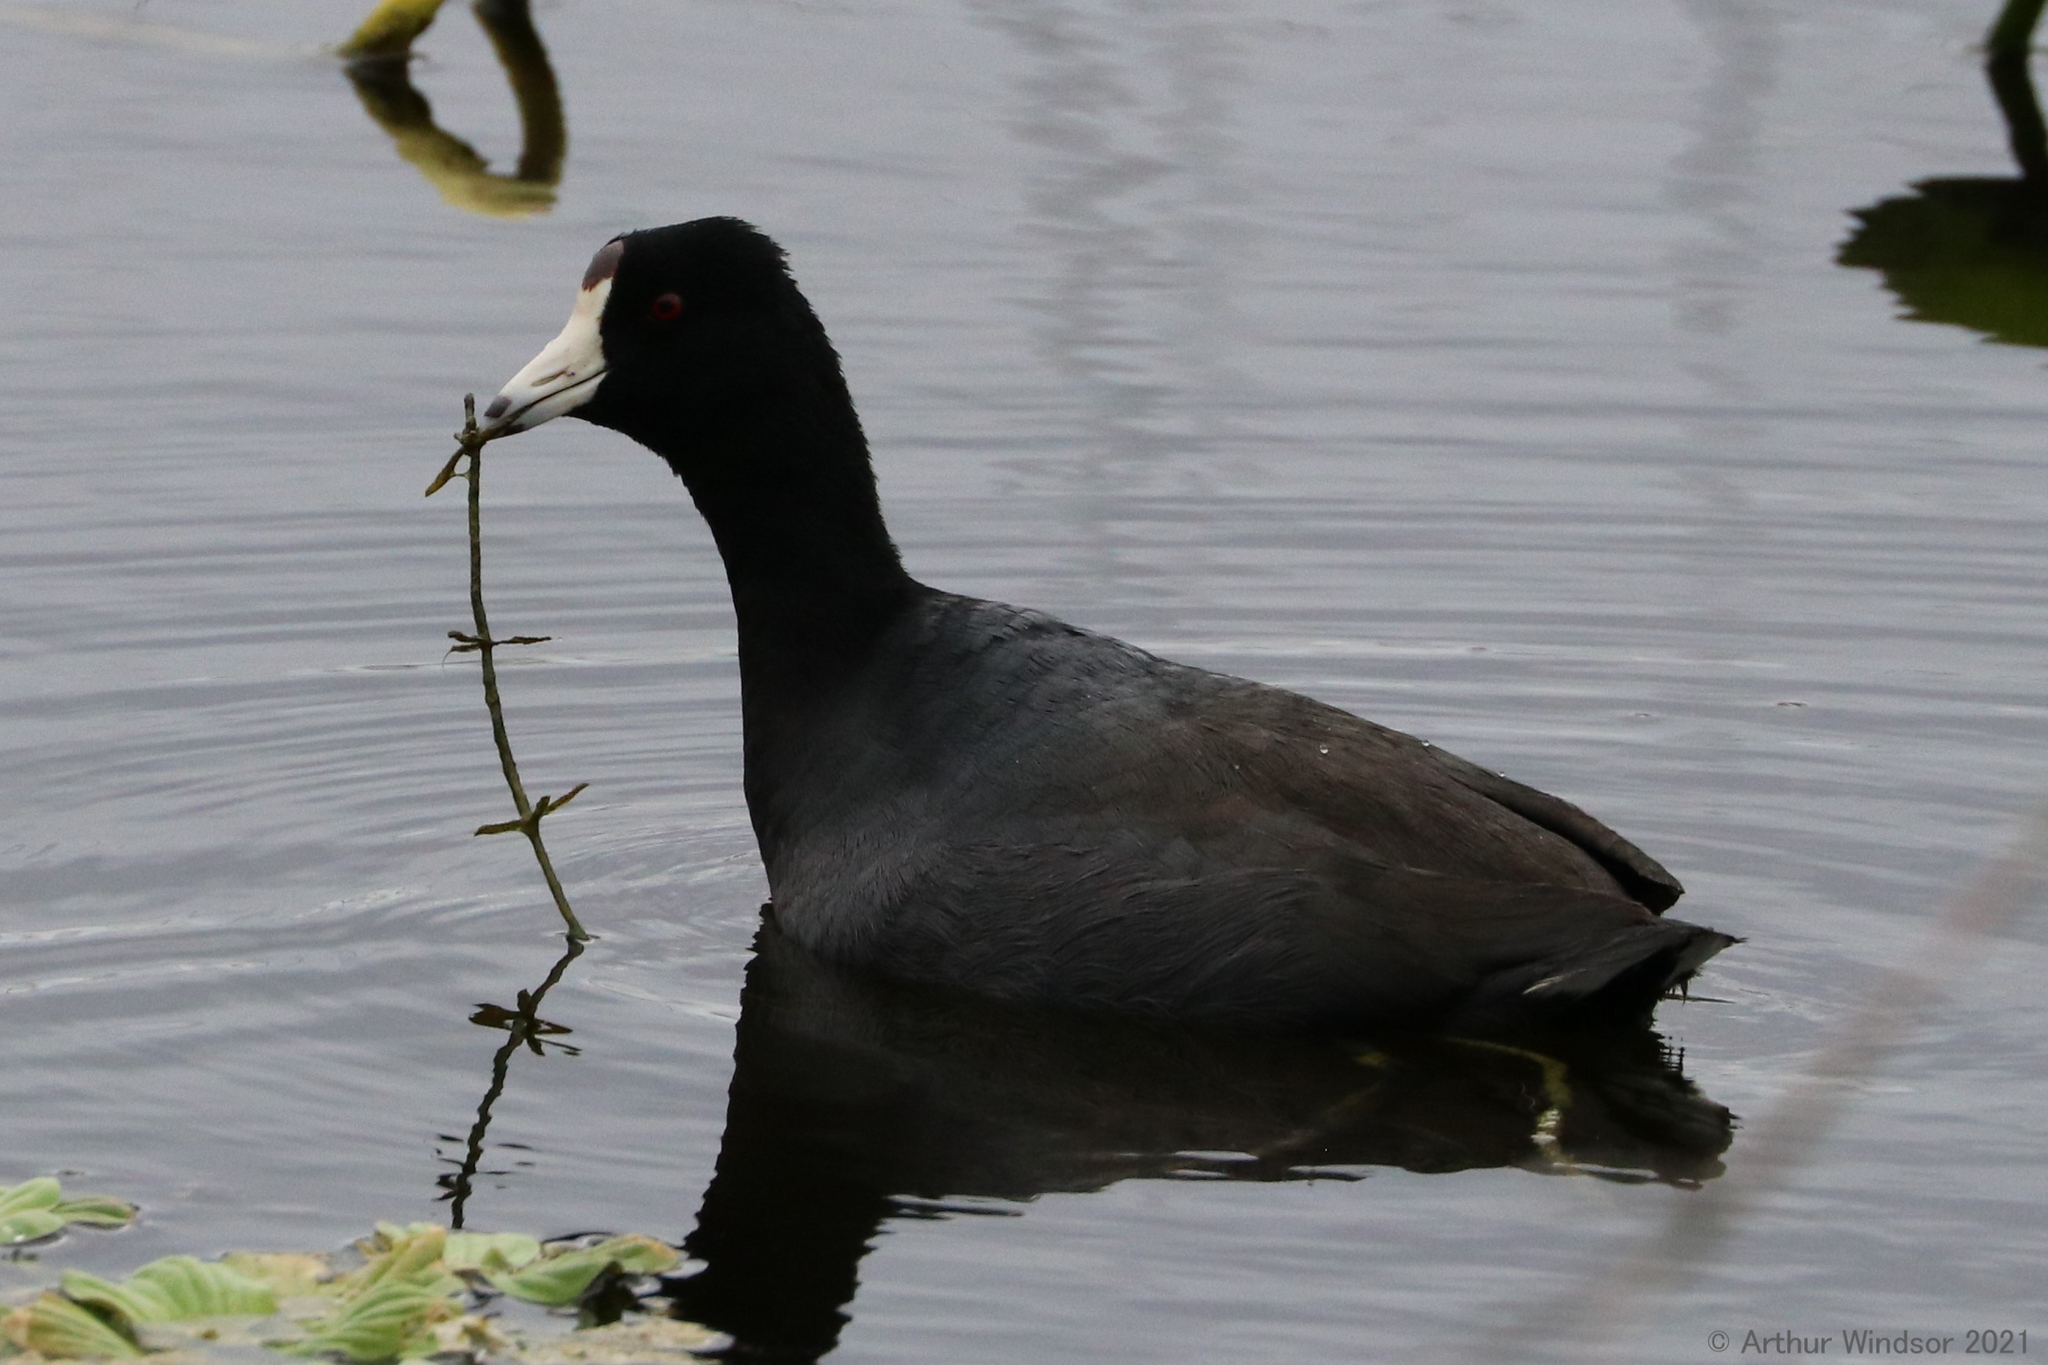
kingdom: Animalia
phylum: Chordata
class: Aves
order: Gruiformes
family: Rallidae
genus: Fulica
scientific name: Fulica americana
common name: American coot
